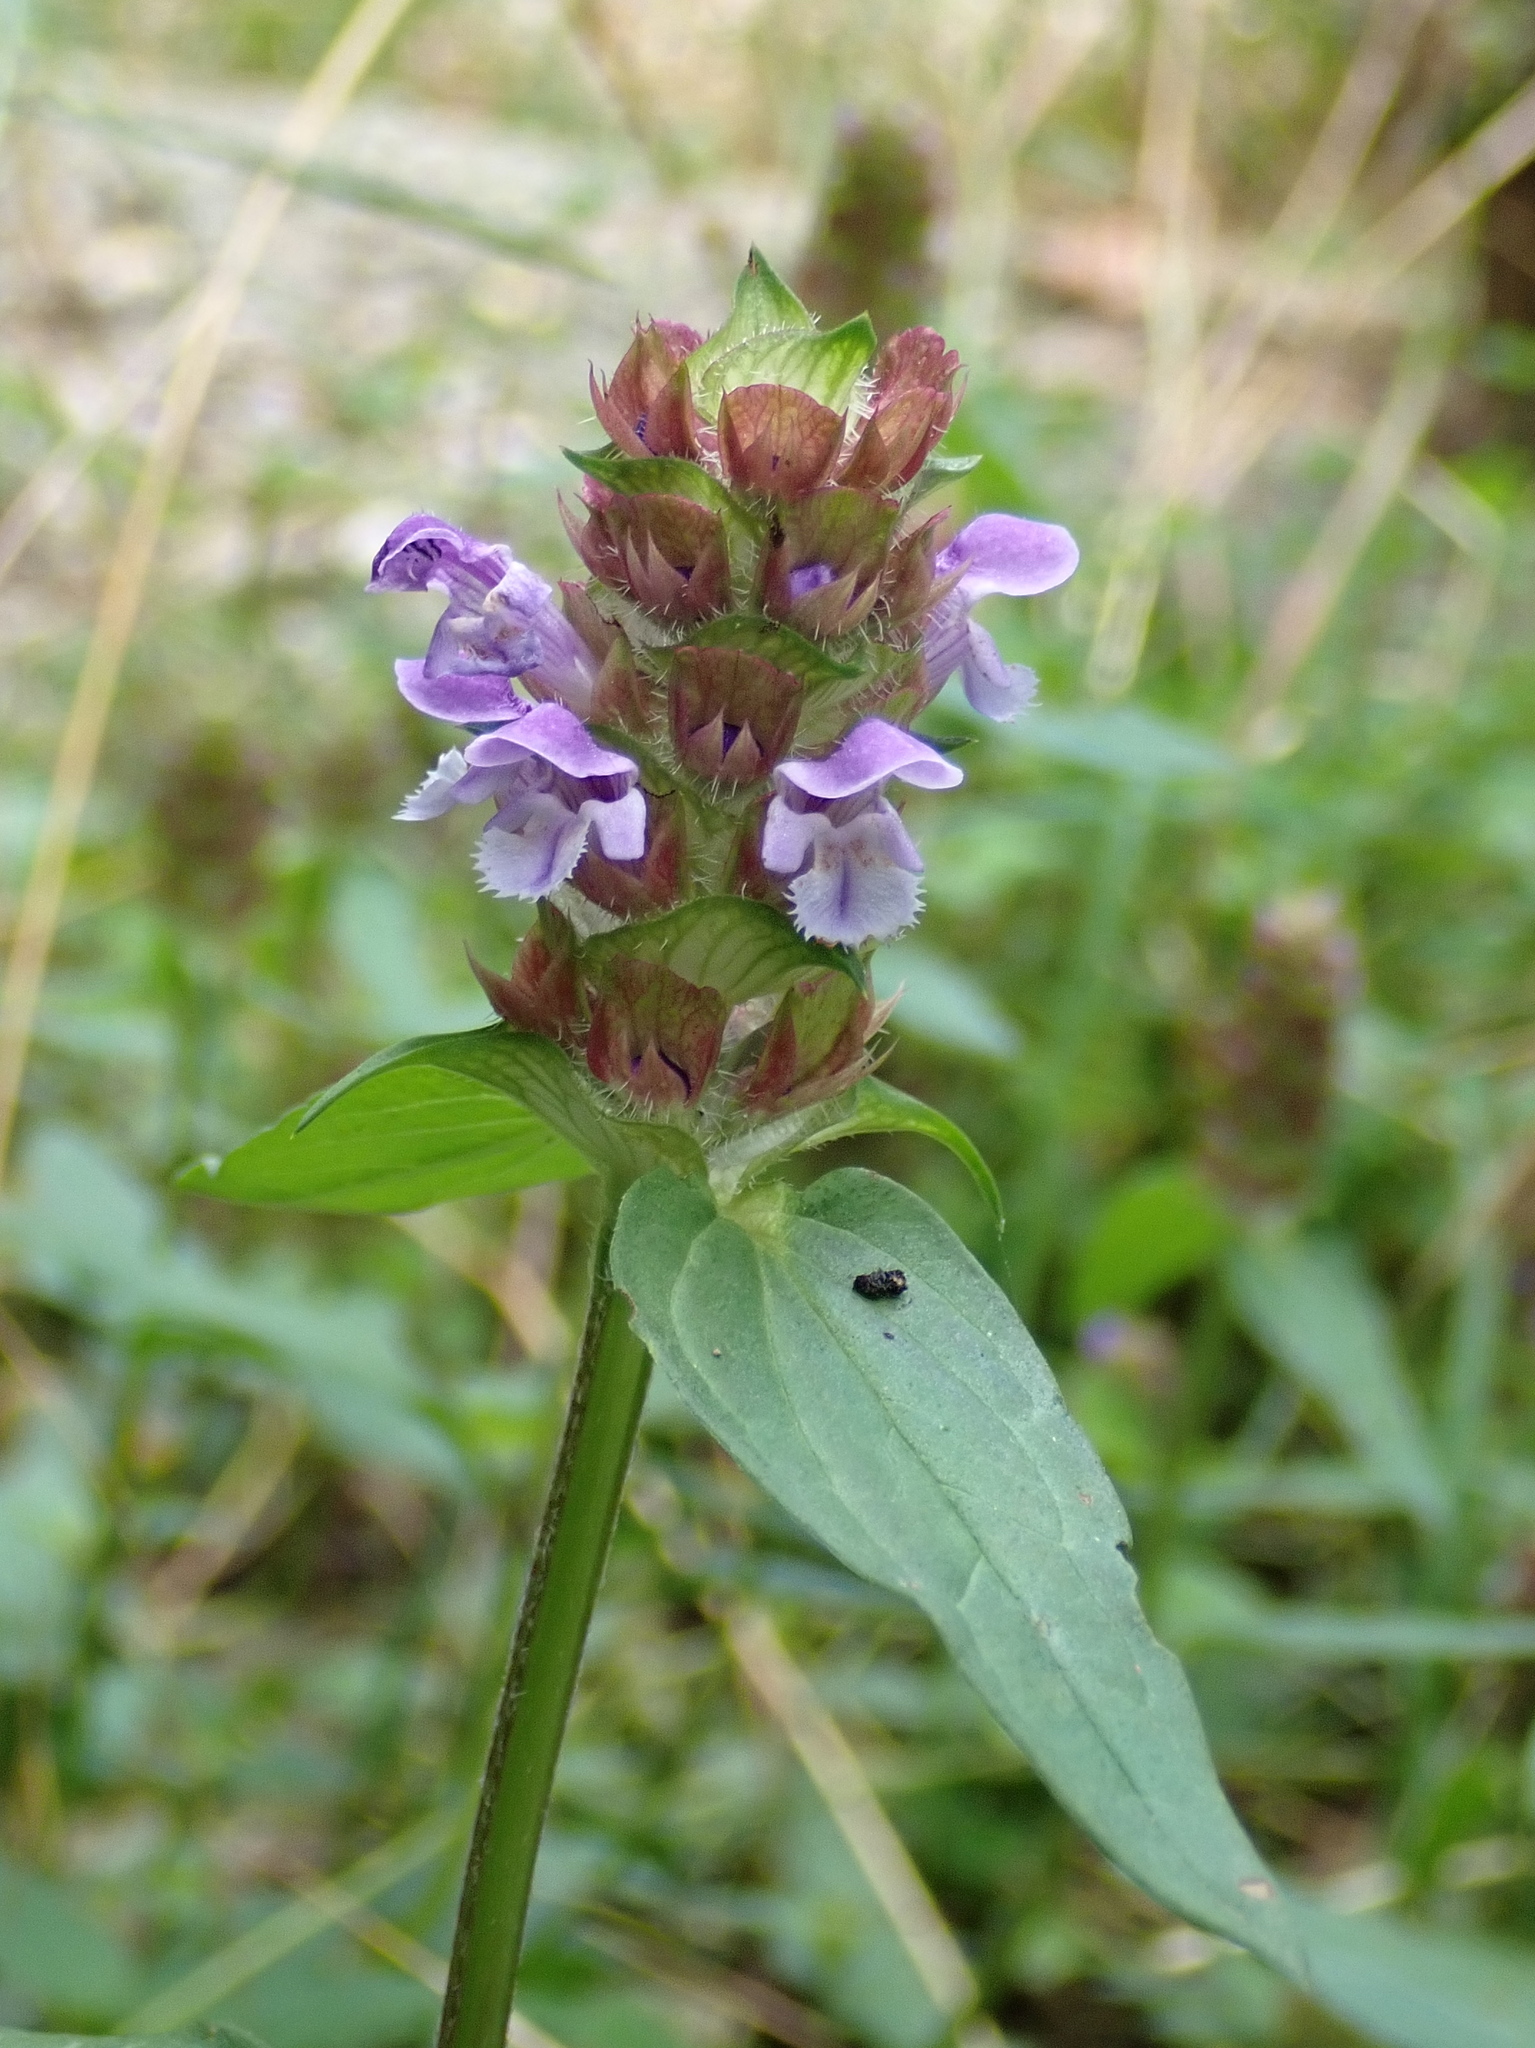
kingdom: Plantae
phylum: Tracheophyta
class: Magnoliopsida
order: Lamiales
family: Lamiaceae
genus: Prunella
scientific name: Prunella vulgaris
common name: Heal-all
